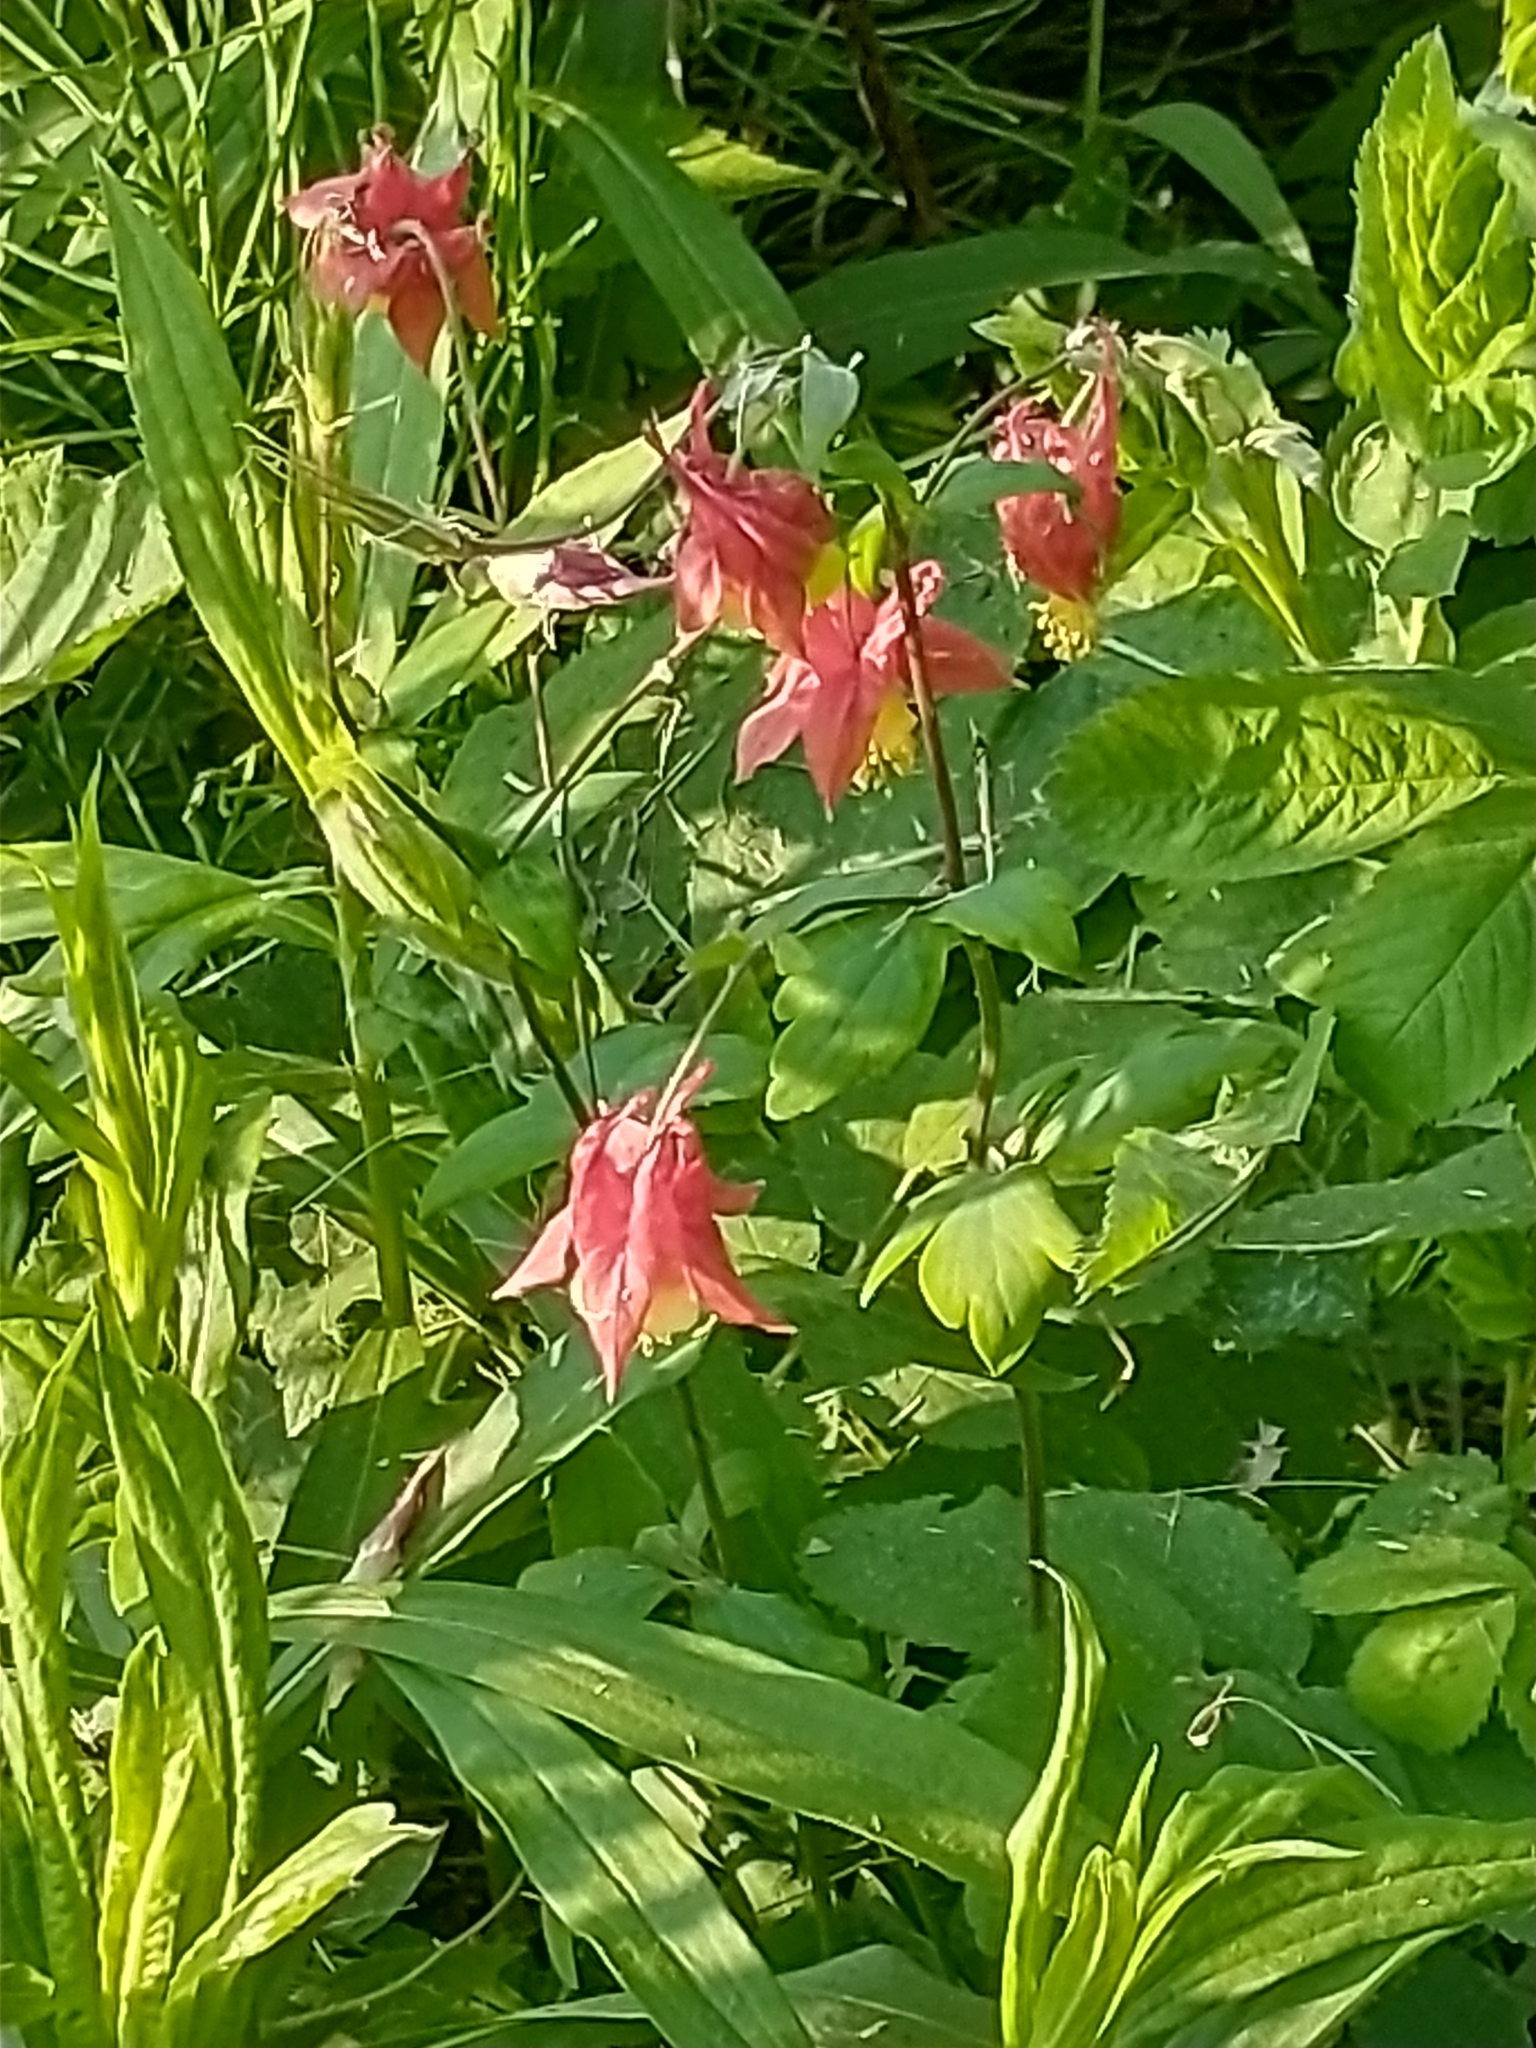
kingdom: Plantae
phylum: Tracheophyta
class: Magnoliopsida
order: Ranunculales
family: Ranunculaceae
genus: Aquilegia
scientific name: Aquilegia canadensis
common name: American columbine
